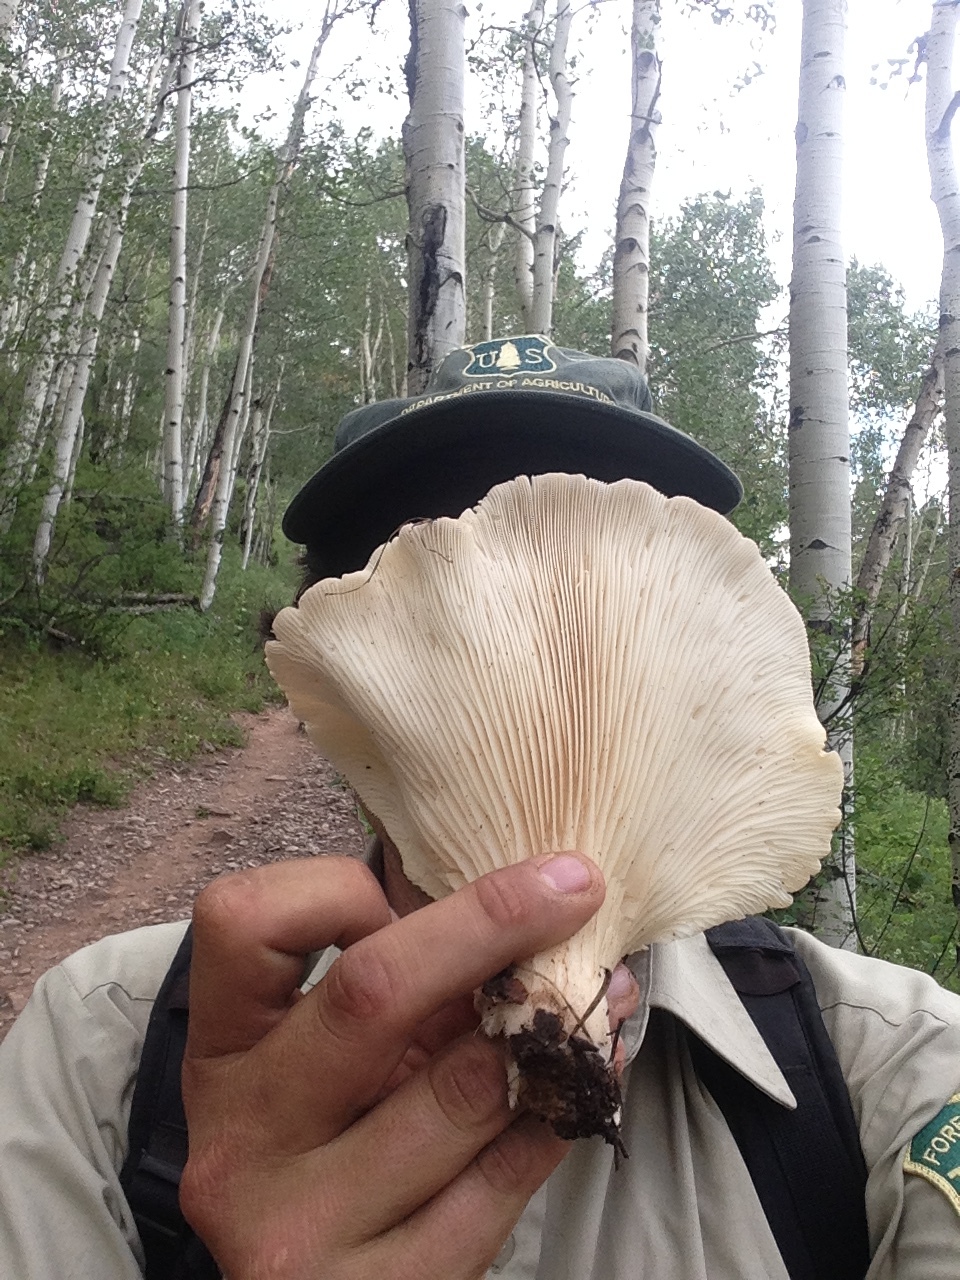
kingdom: Fungi
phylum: Basidiomycota
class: Agaricomycetes
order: Agaricales
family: Pleurotaceae
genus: Pleurotus
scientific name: Pleurotus ostreatus
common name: Oyster mushroom
